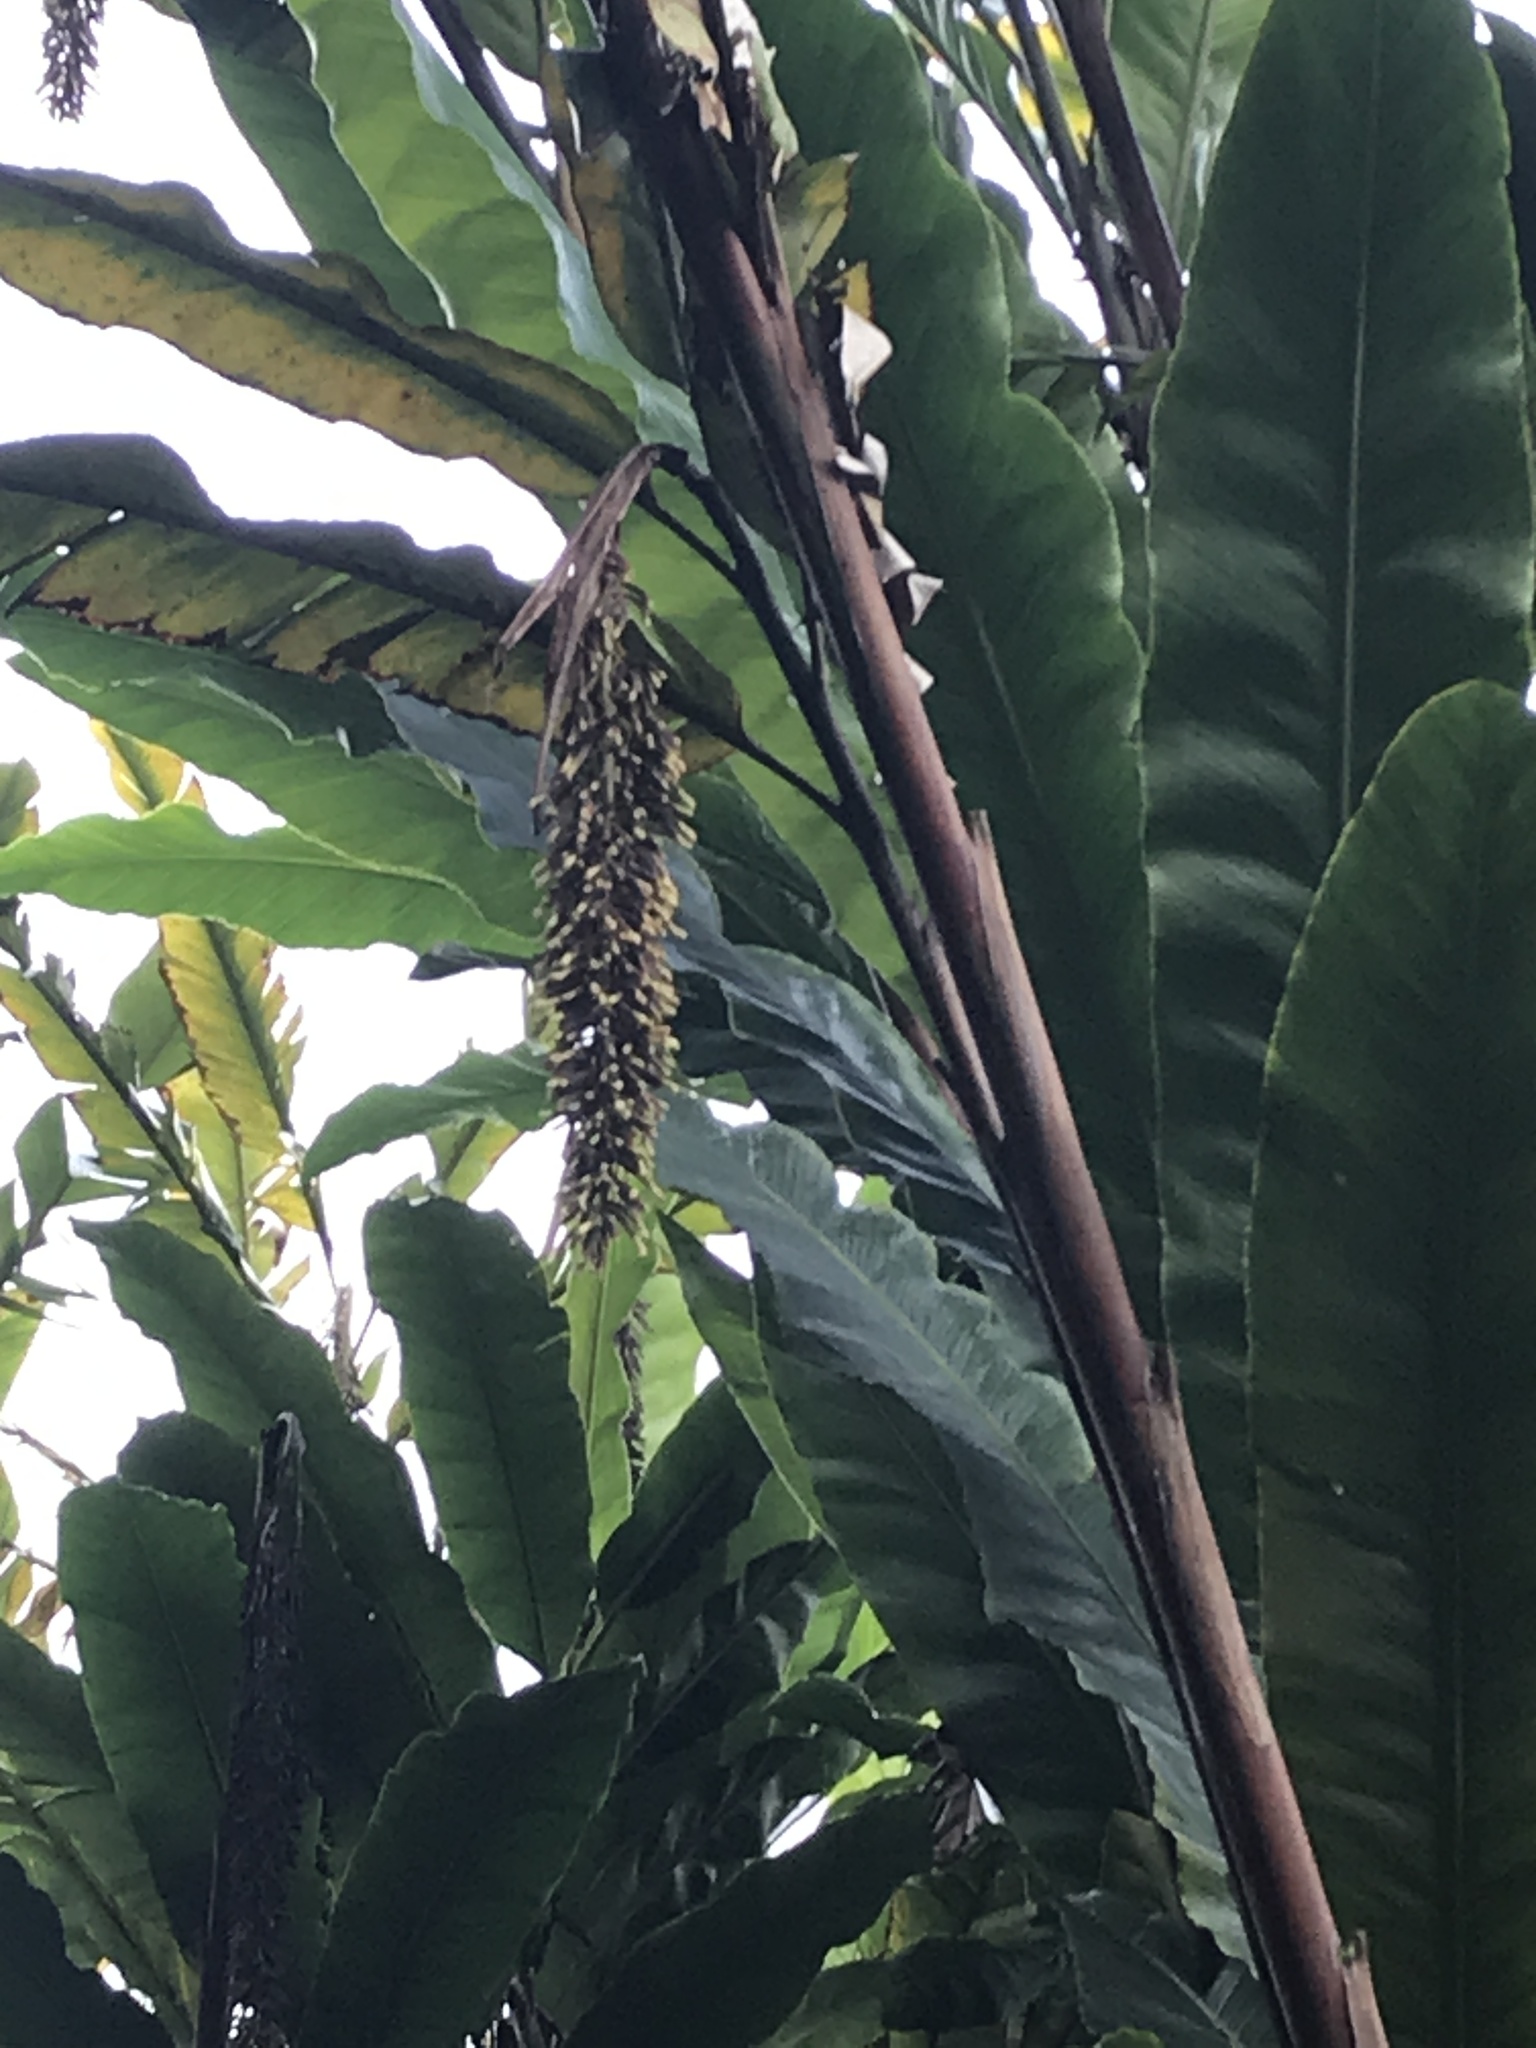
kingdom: Plantae
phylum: Tracheophyta
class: Liliopsida
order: Zingiberales
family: Zingiberaceae
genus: Alpinia
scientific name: Alpinia boia
